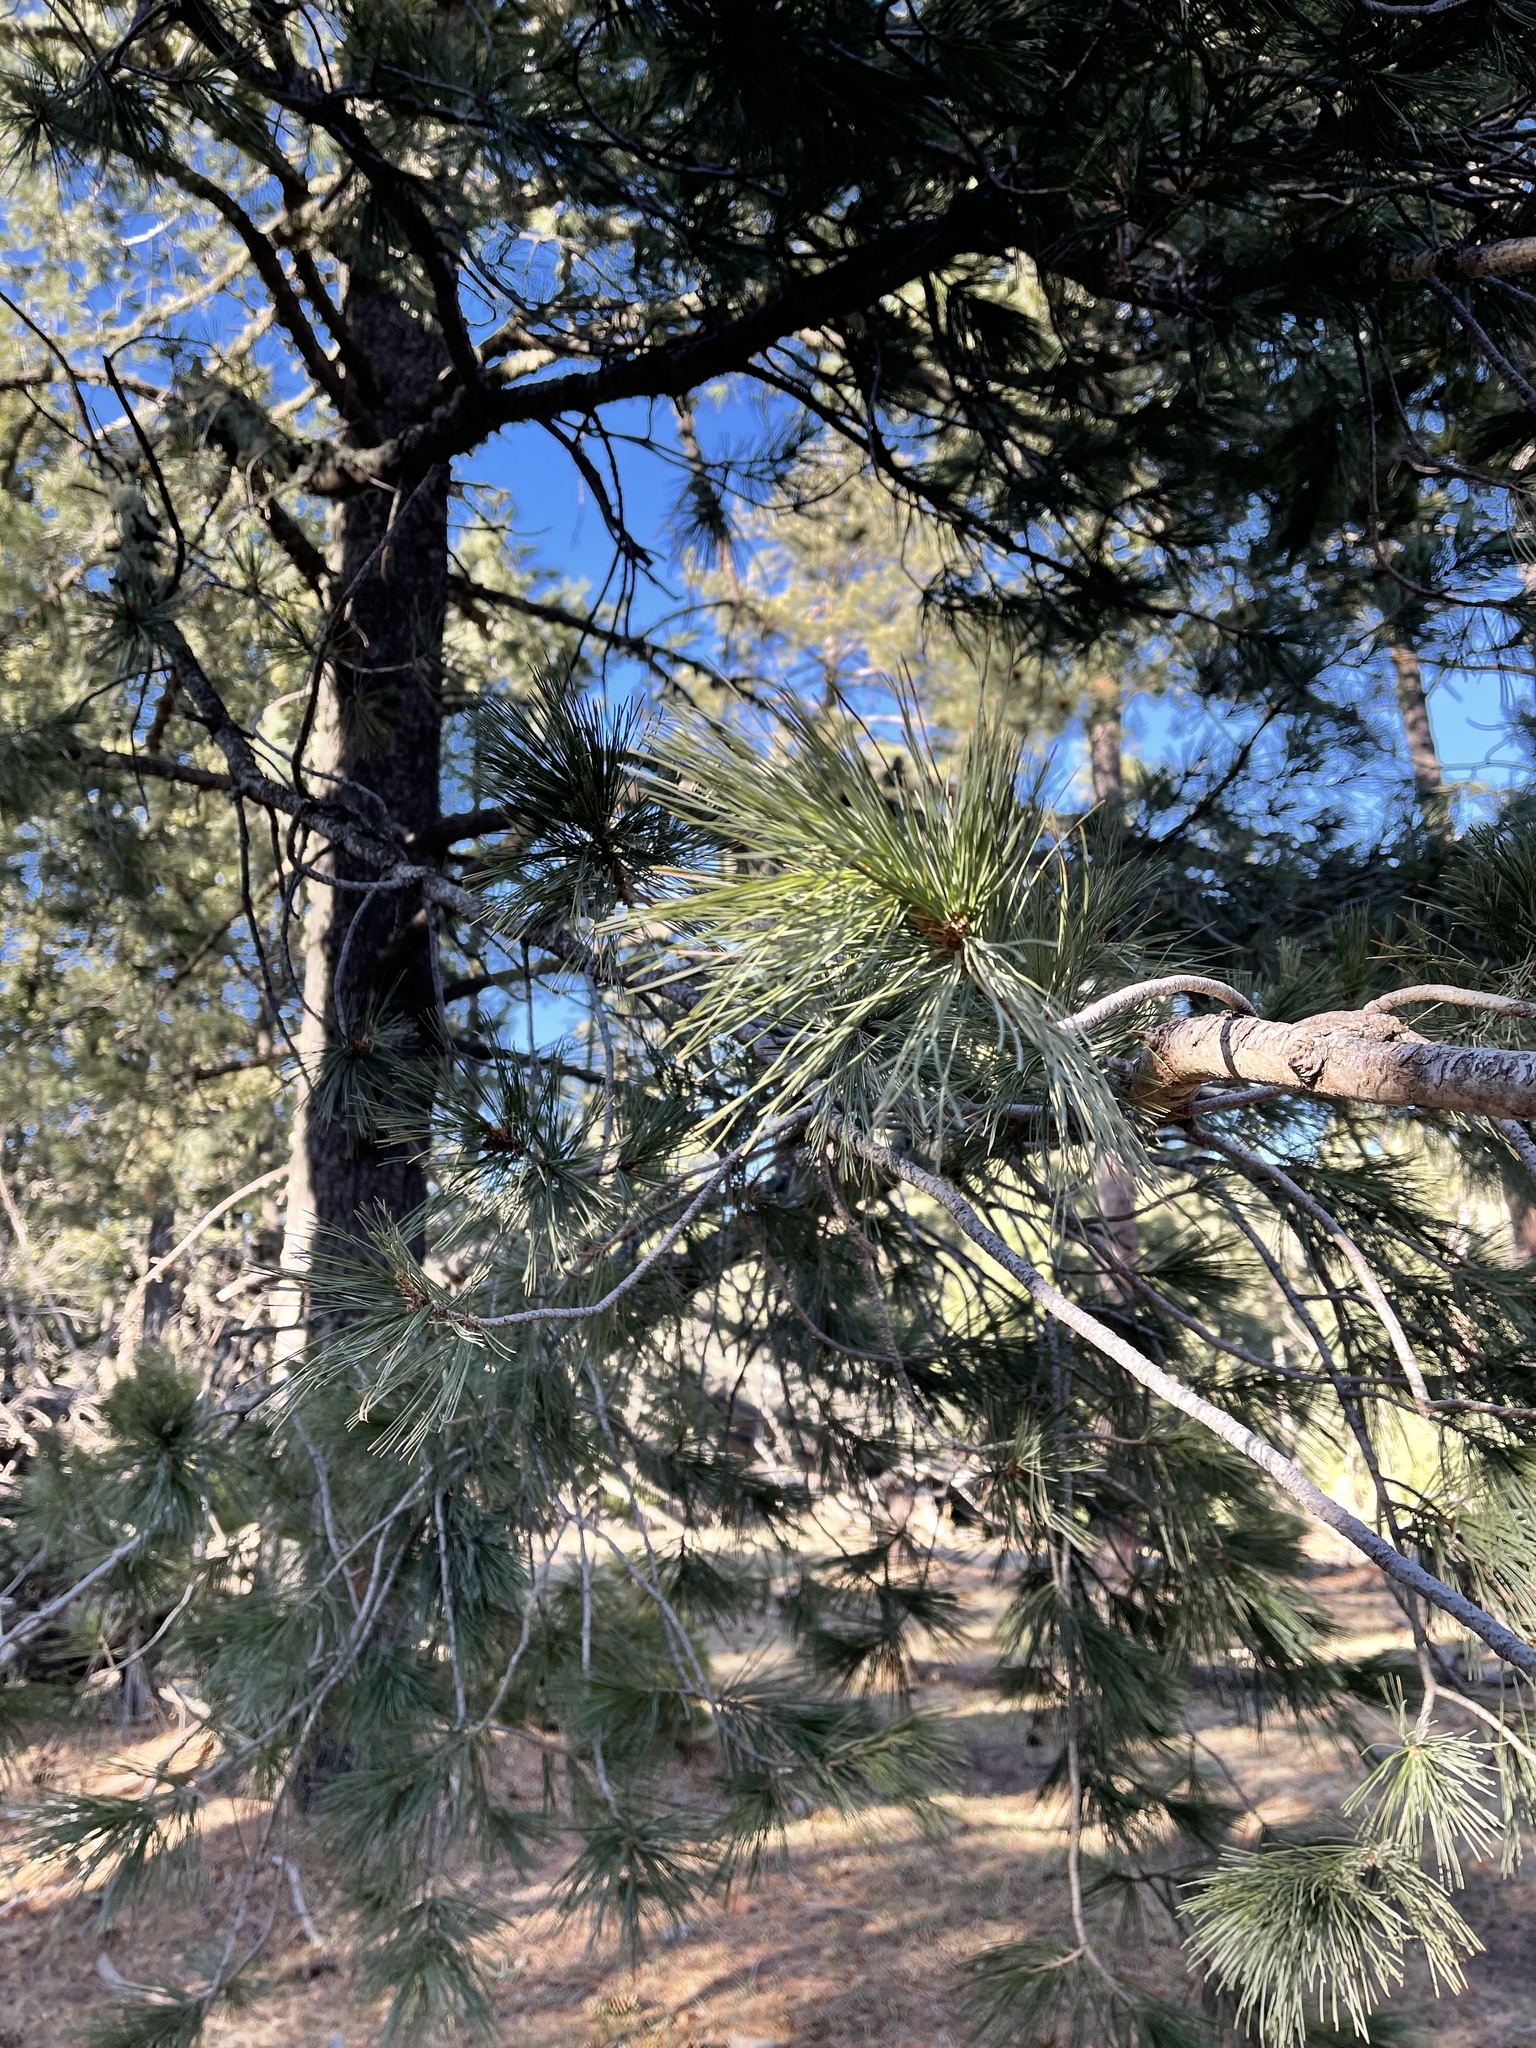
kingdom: Plantae
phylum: Tracheophyta
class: Pinopsida
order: Pinales
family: Pinaceae
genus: Pinus
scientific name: Pinus strobiformis
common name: Southwestern white pine
